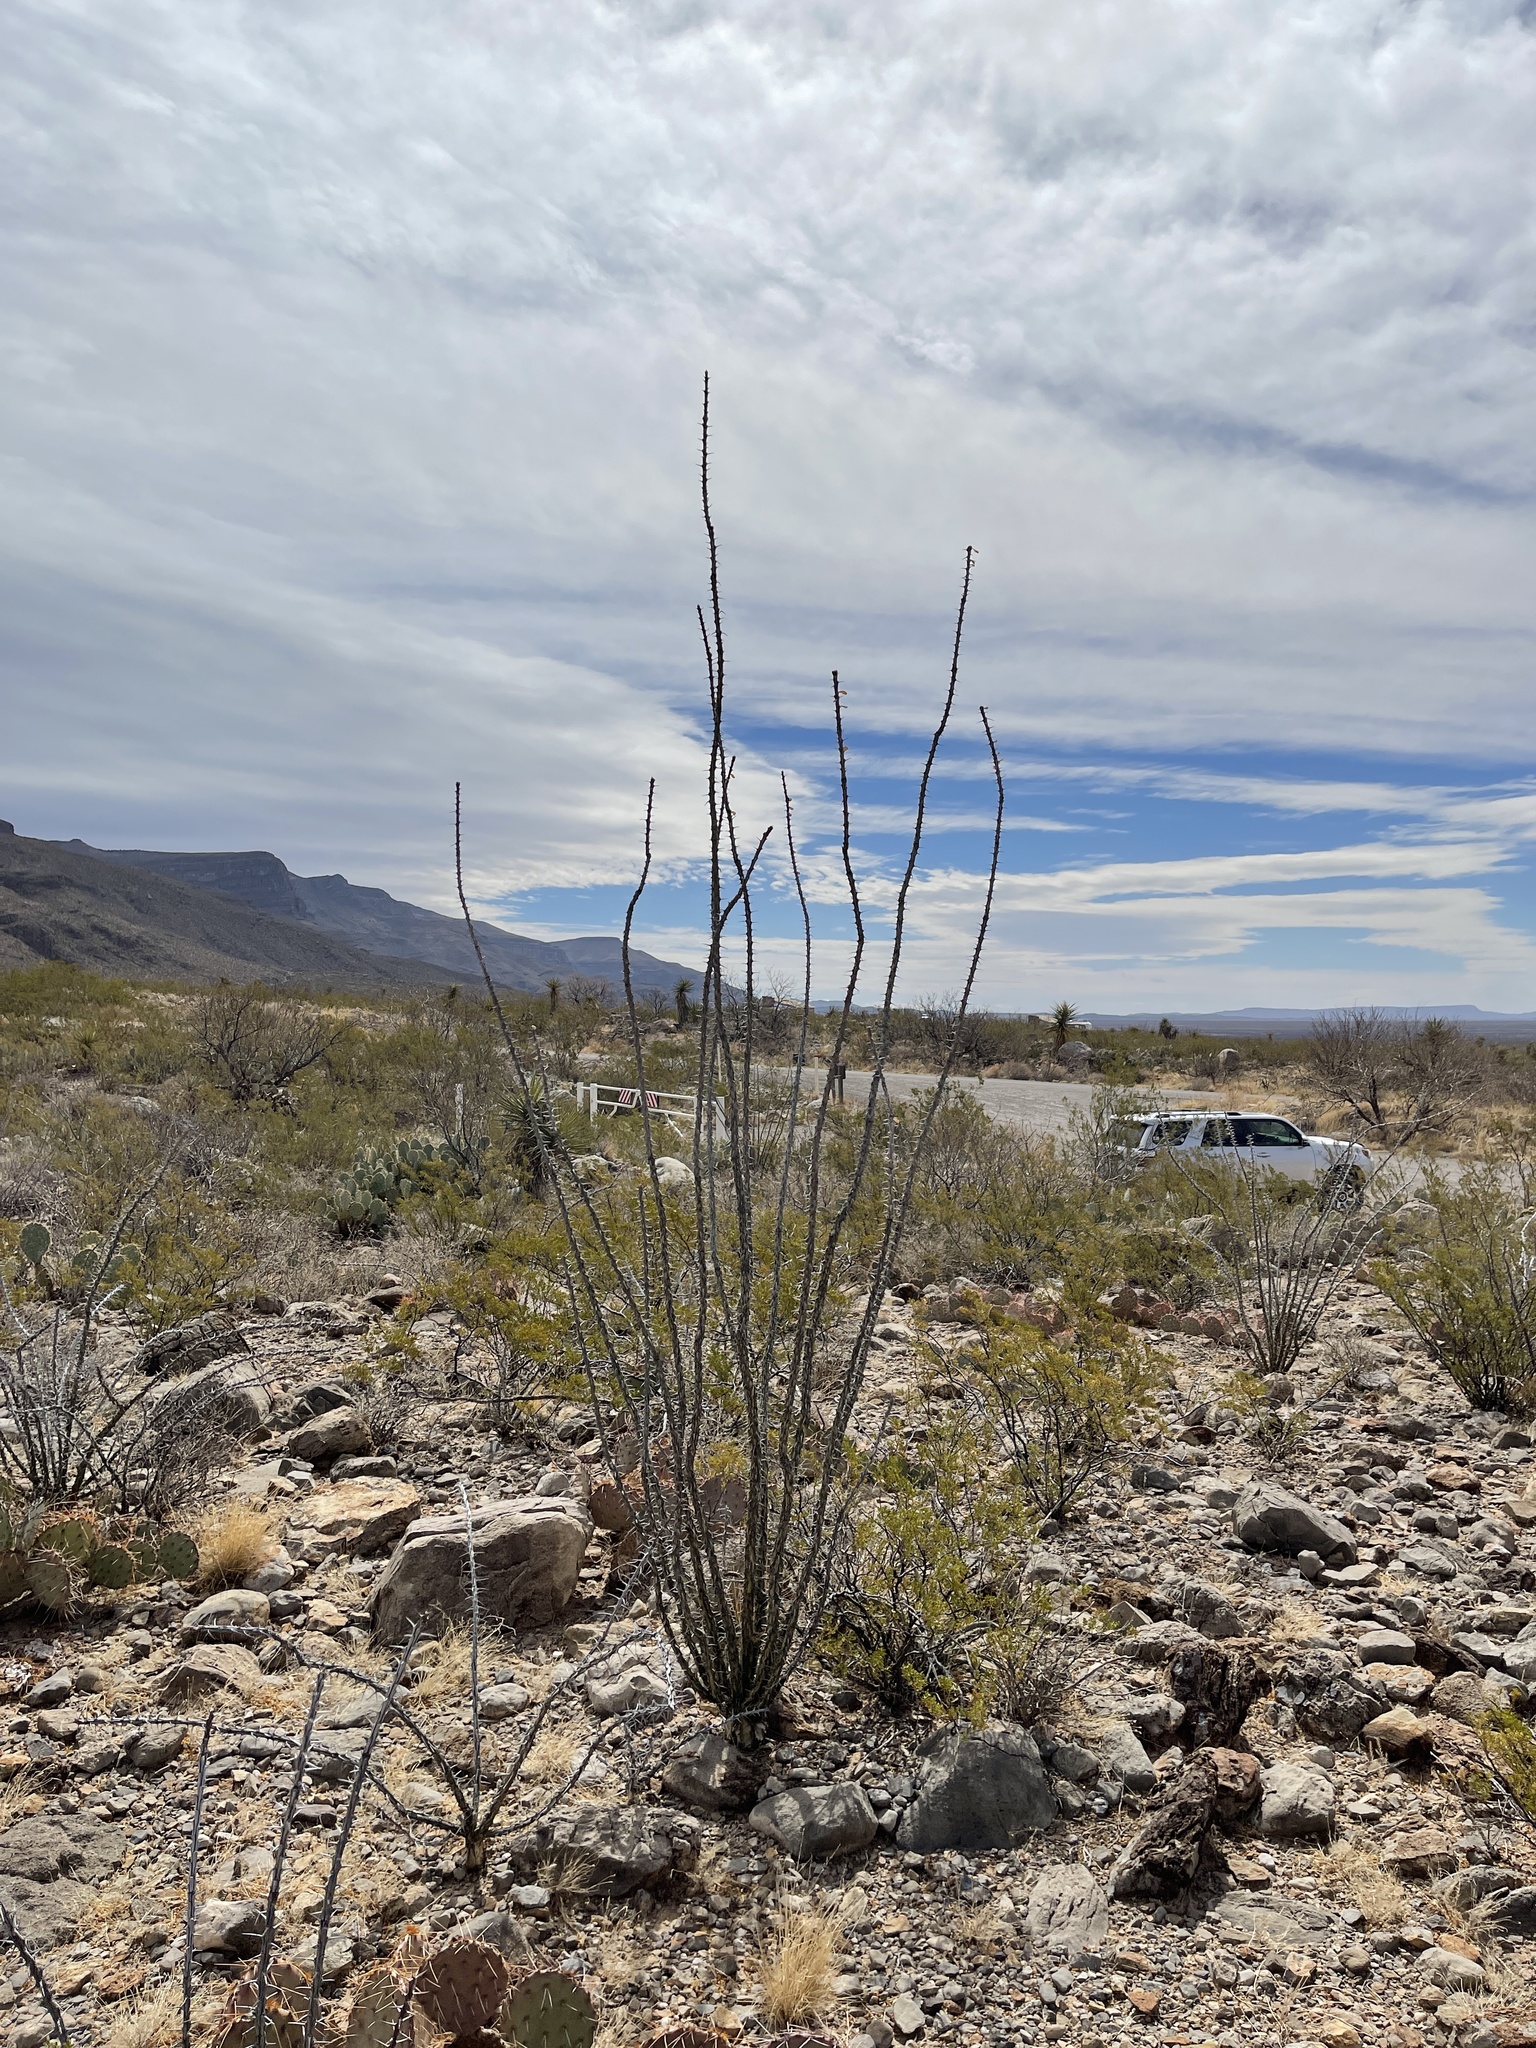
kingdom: Plantae
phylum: Tracheophyta
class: Magnoliopsida
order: Ericales
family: Fouquieriaceae
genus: Fouquieria
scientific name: Fouquieria splendens
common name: Vine-cactus
